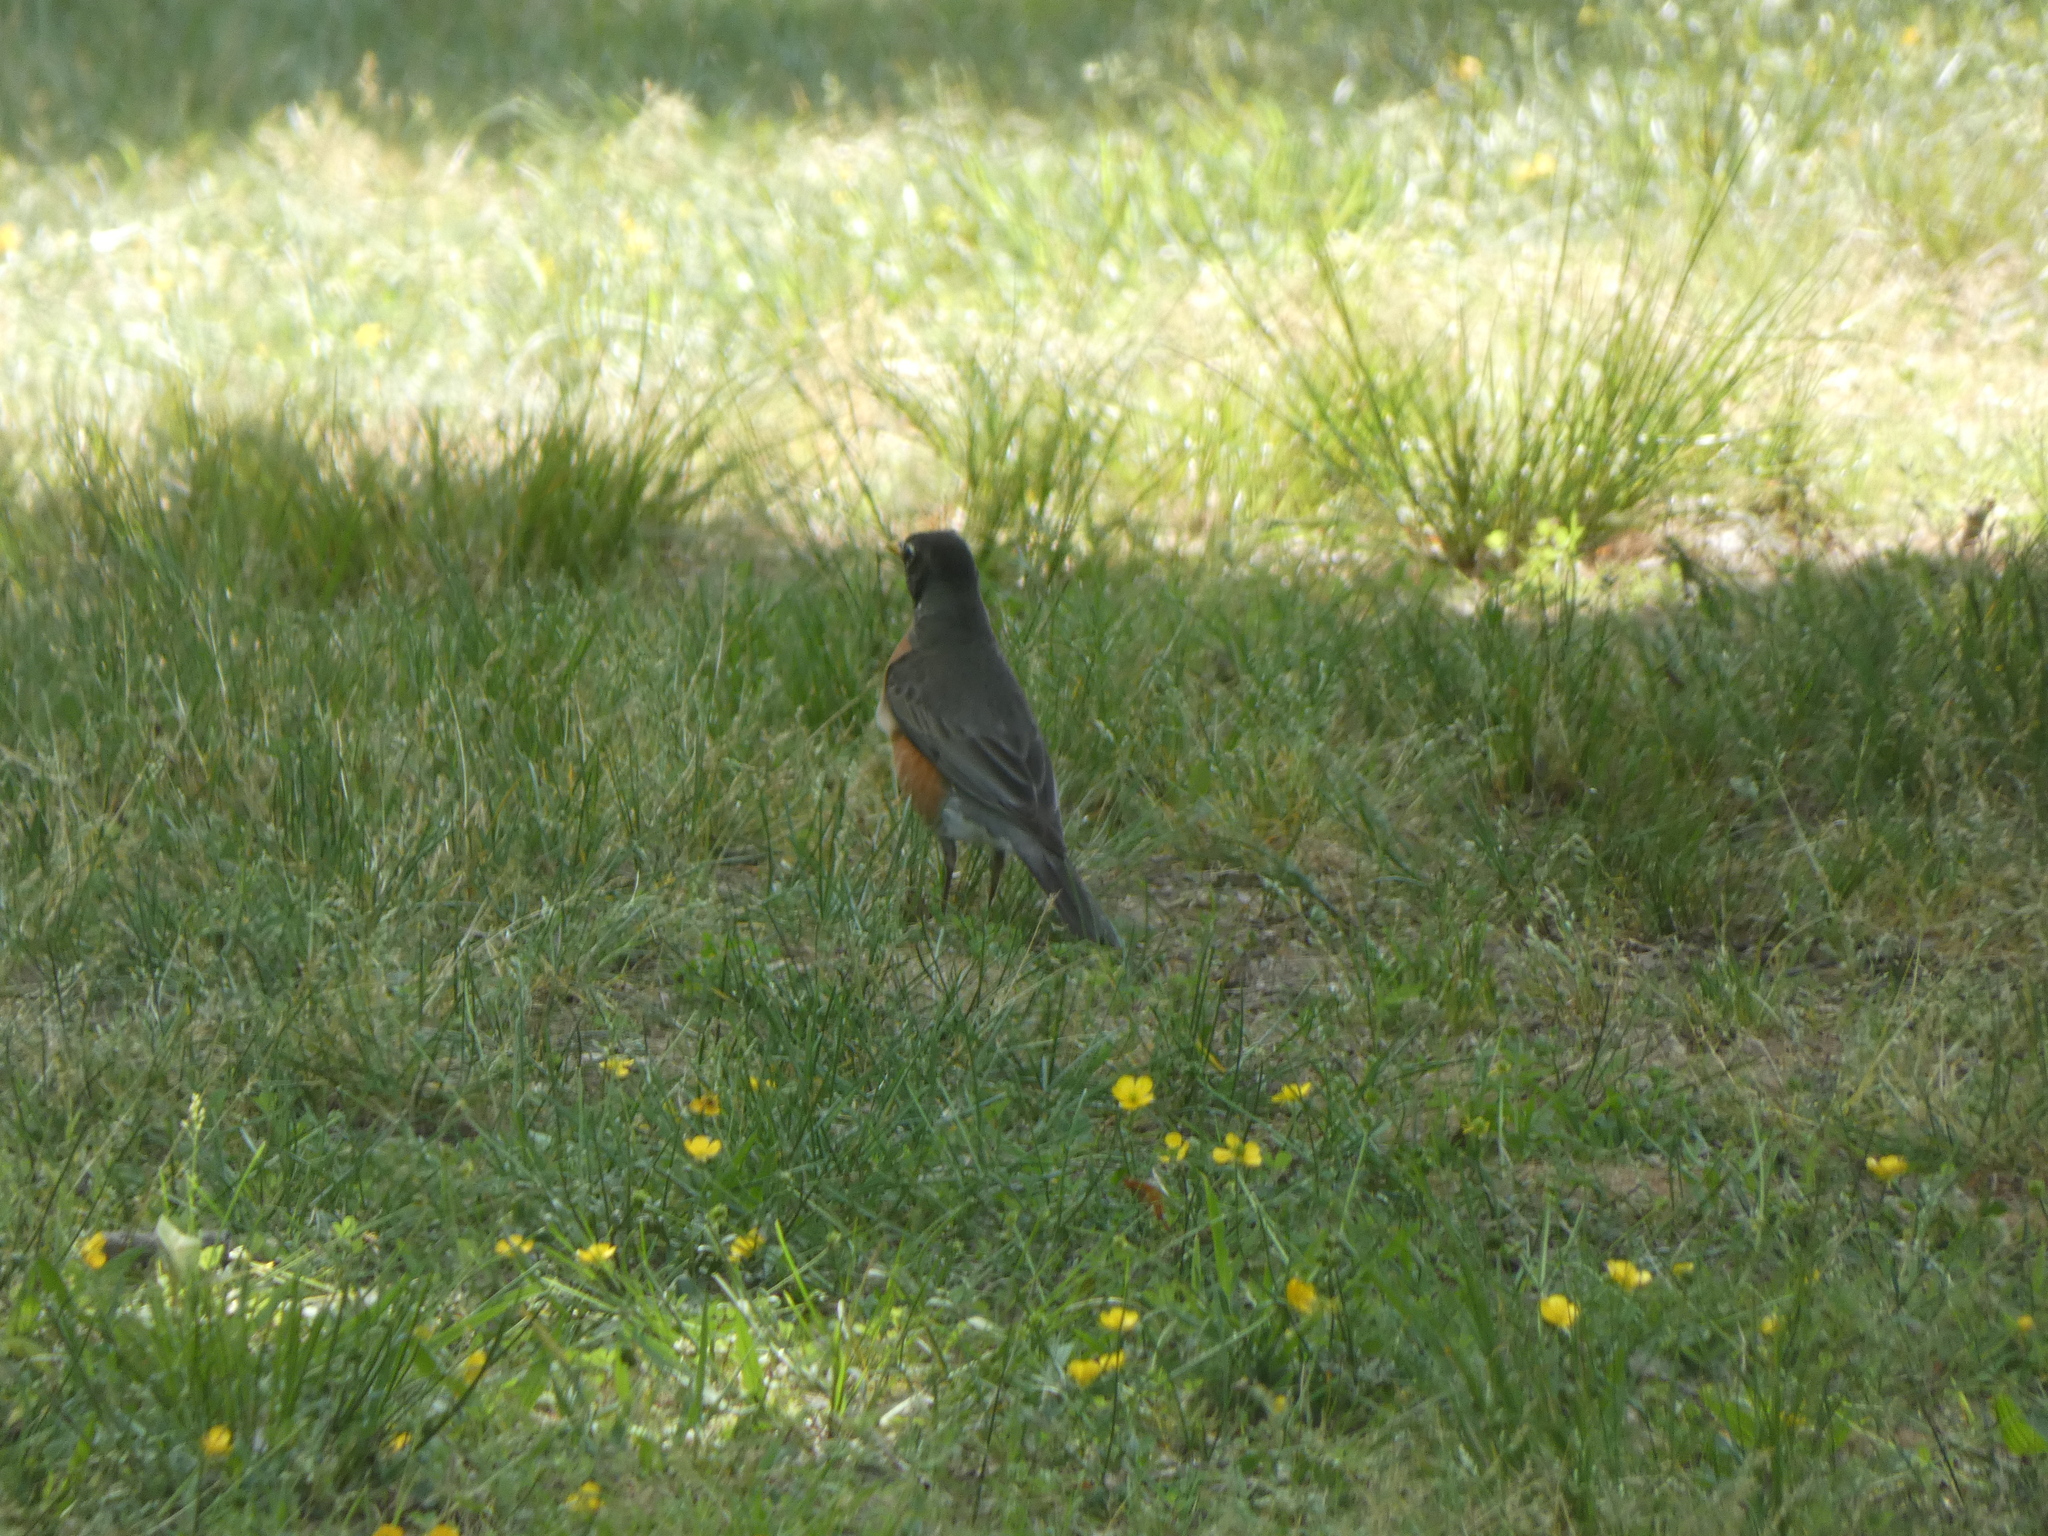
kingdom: Animalia
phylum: Chordata
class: Aves
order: Passeriformes
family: Turdidae
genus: Turdus
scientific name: Turdus migratorius
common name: American robin
